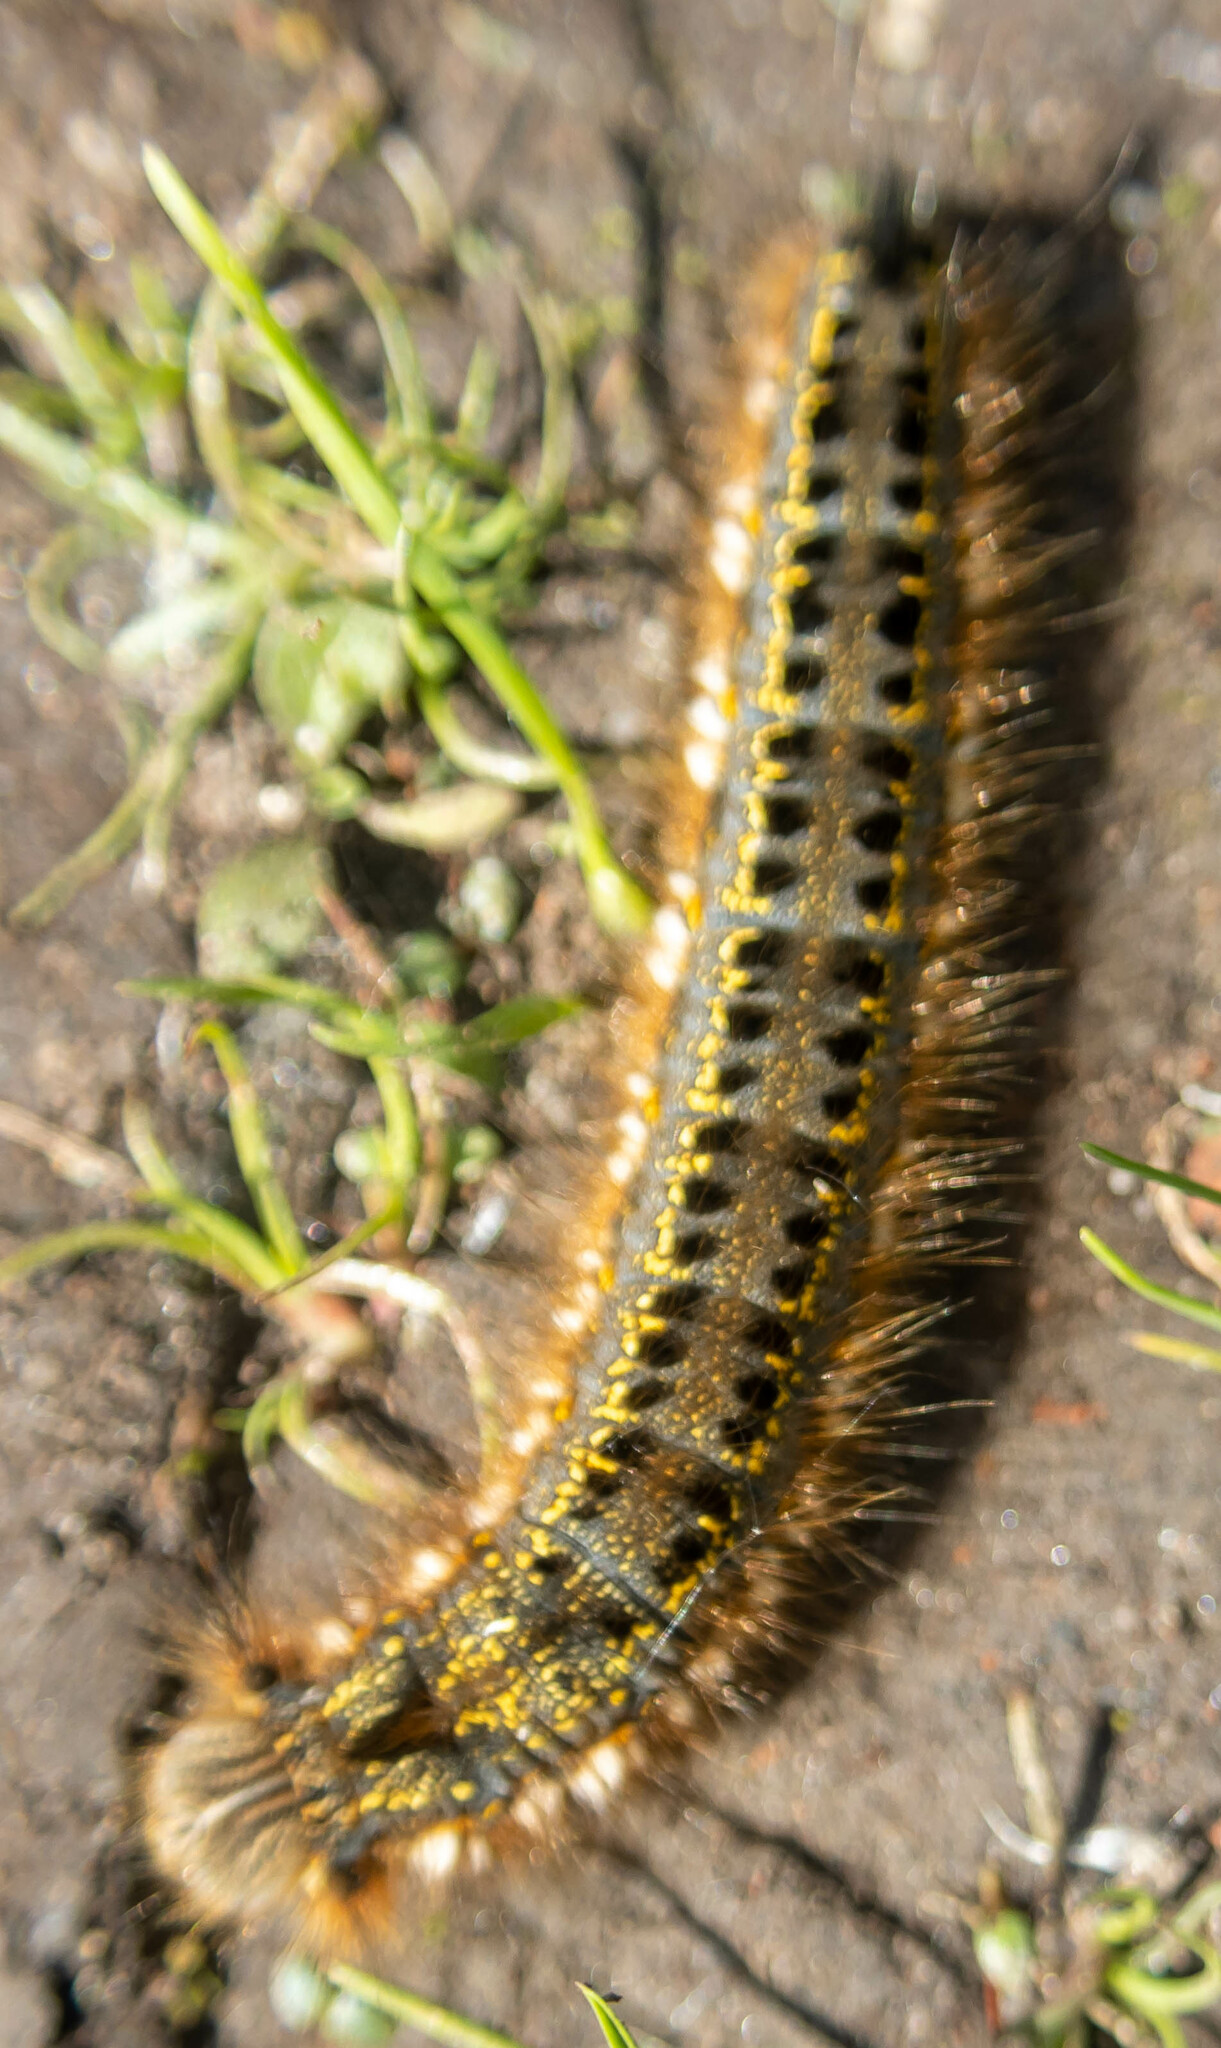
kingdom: Animalia
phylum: Arthropoda
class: Insecta
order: Lepidoptera
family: Lasiocampidae
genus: Euthrix
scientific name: Euthrix potatoria
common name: Drinker
